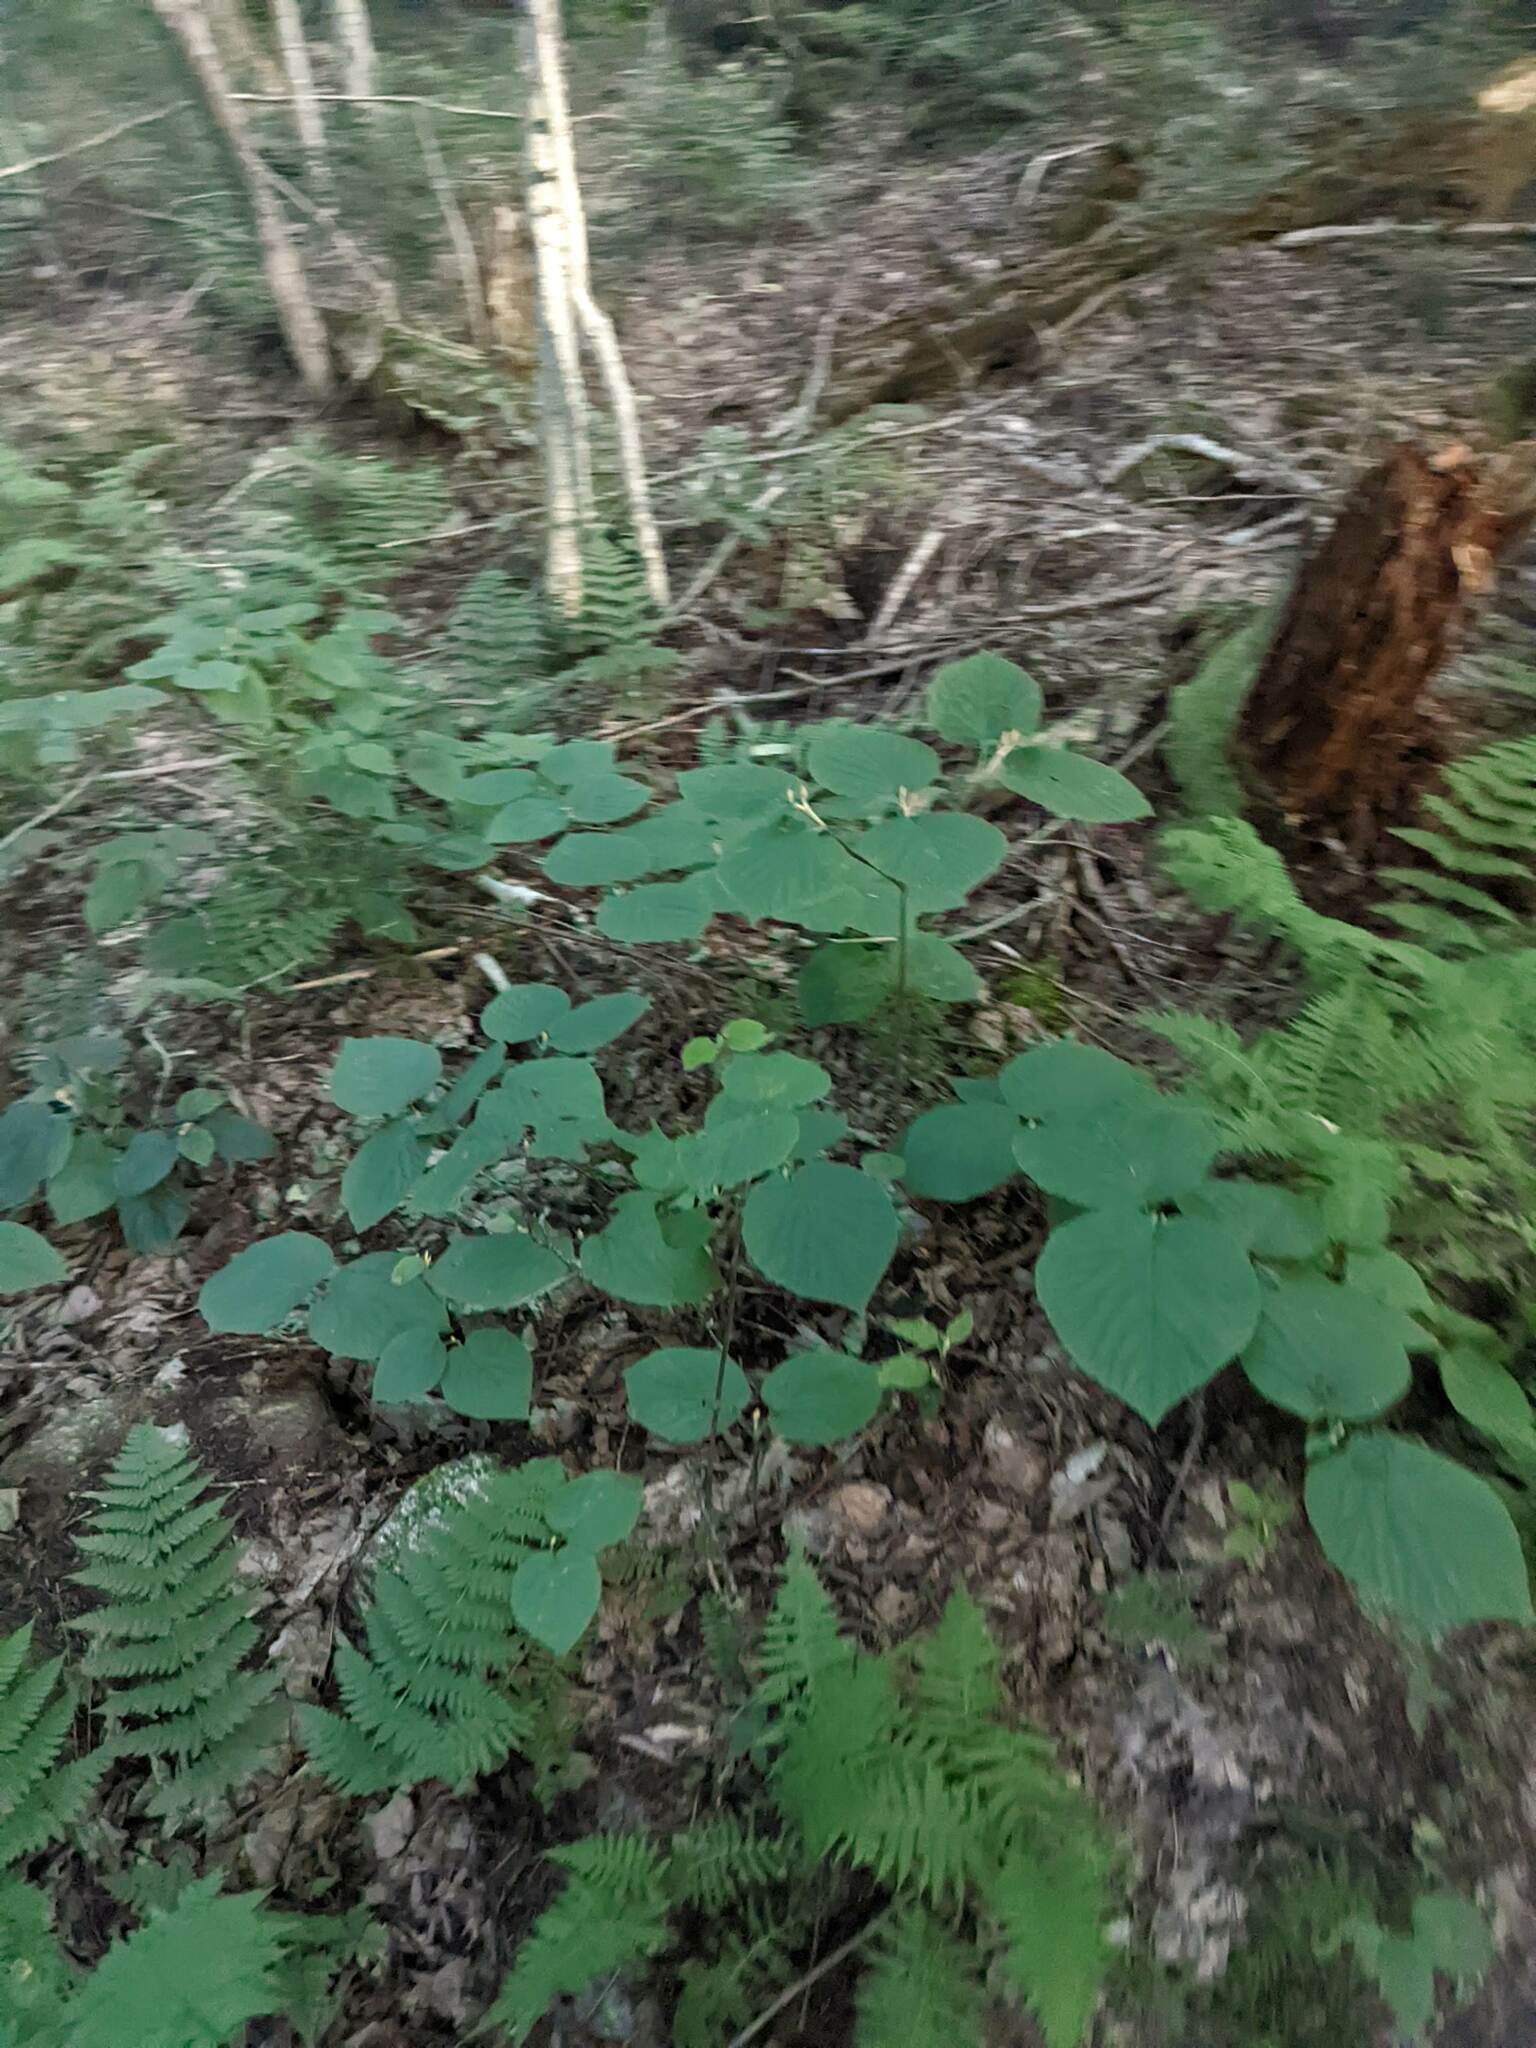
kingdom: Plantae
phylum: Tracheophyta
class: Magnoliopsida
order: Dipsacales
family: Viburnaceae
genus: Viburnum
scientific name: Viburnum lantanoides
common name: Hobblebush
